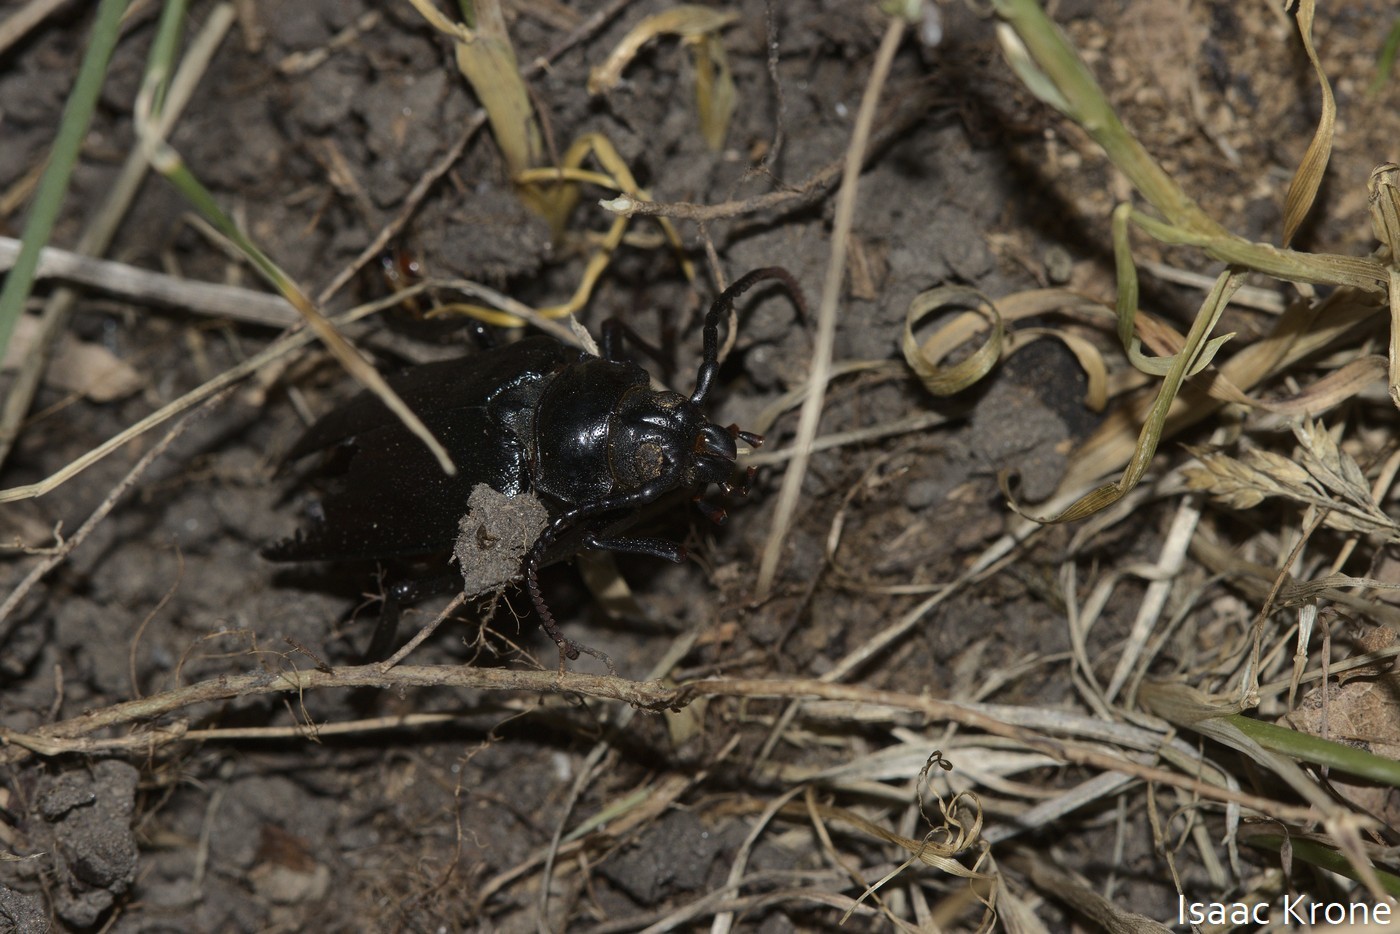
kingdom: Animalia
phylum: Arthropoda
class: Insecta
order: Coleoptera
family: Cerambycidae
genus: Prionus
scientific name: Prionus fissicornis
